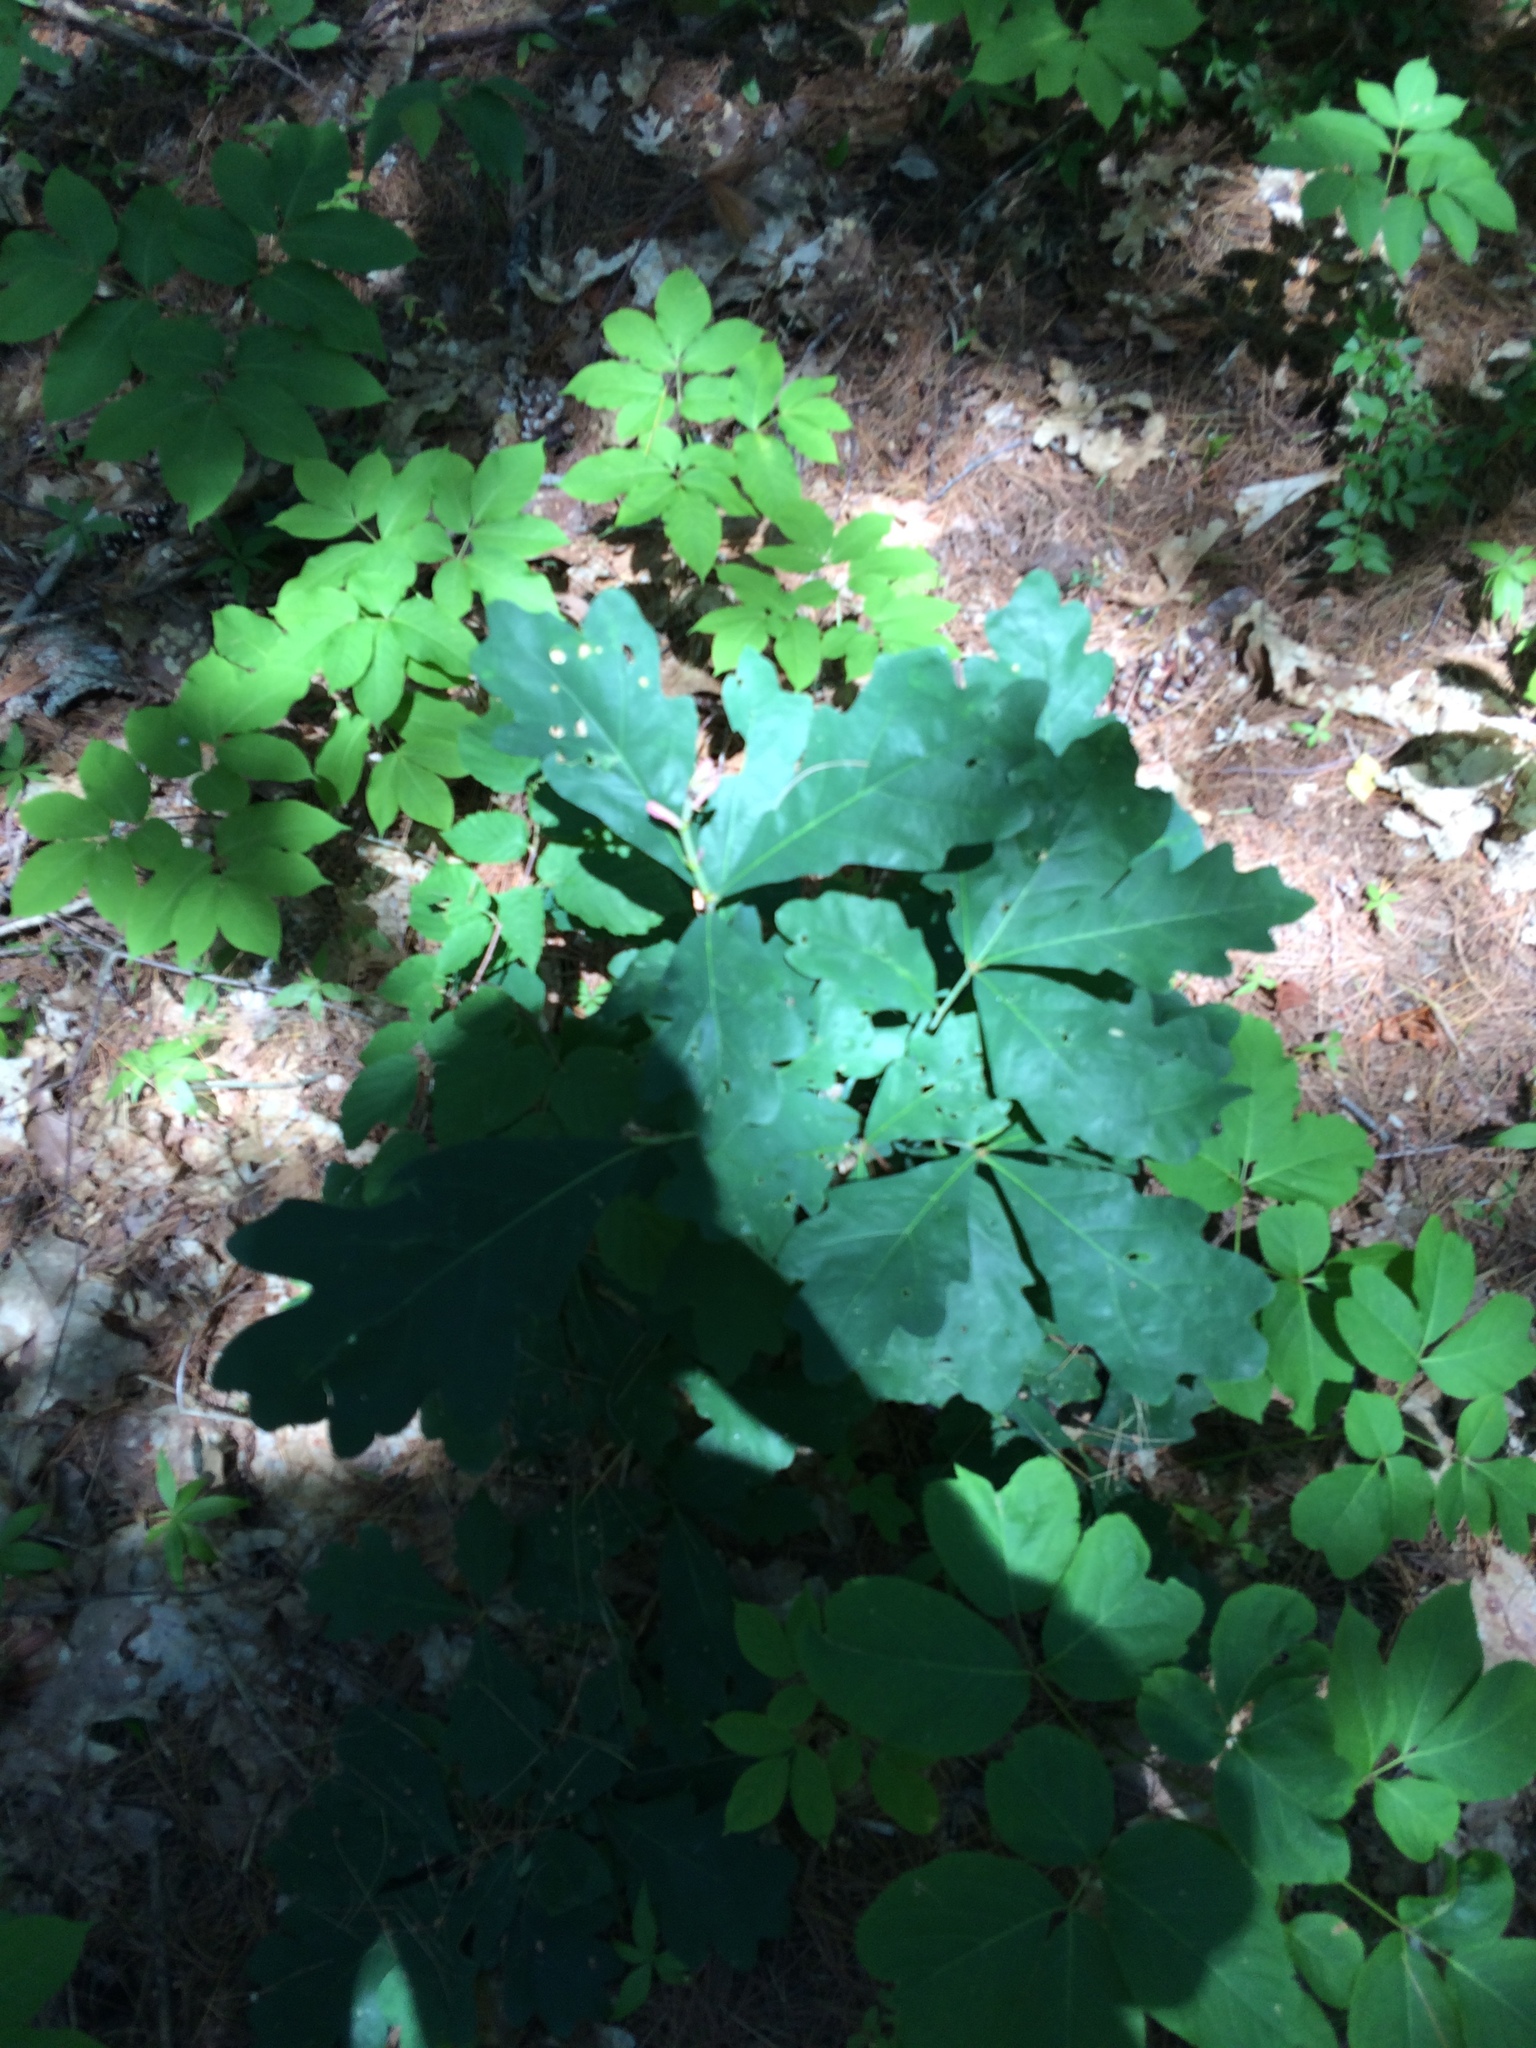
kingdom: Plantae
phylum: Tracheophyta
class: Magnoliopsida
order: Fagales
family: Fagaceae
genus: Quercus
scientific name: Quercus alba
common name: White oak
